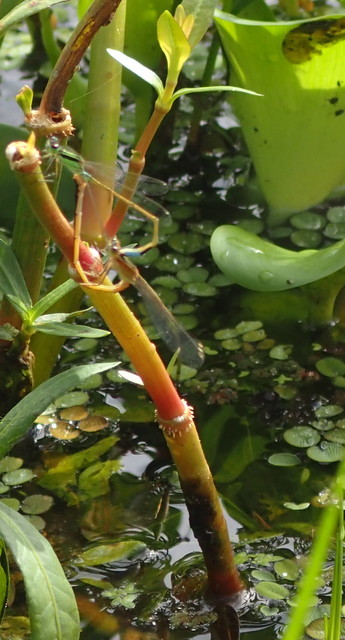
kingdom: Animalia
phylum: Arthropoda
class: Insecta
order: Odonata
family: Coenagrionidae
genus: Ischnura
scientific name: Ischnura ramburii
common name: Rambur's forktail
